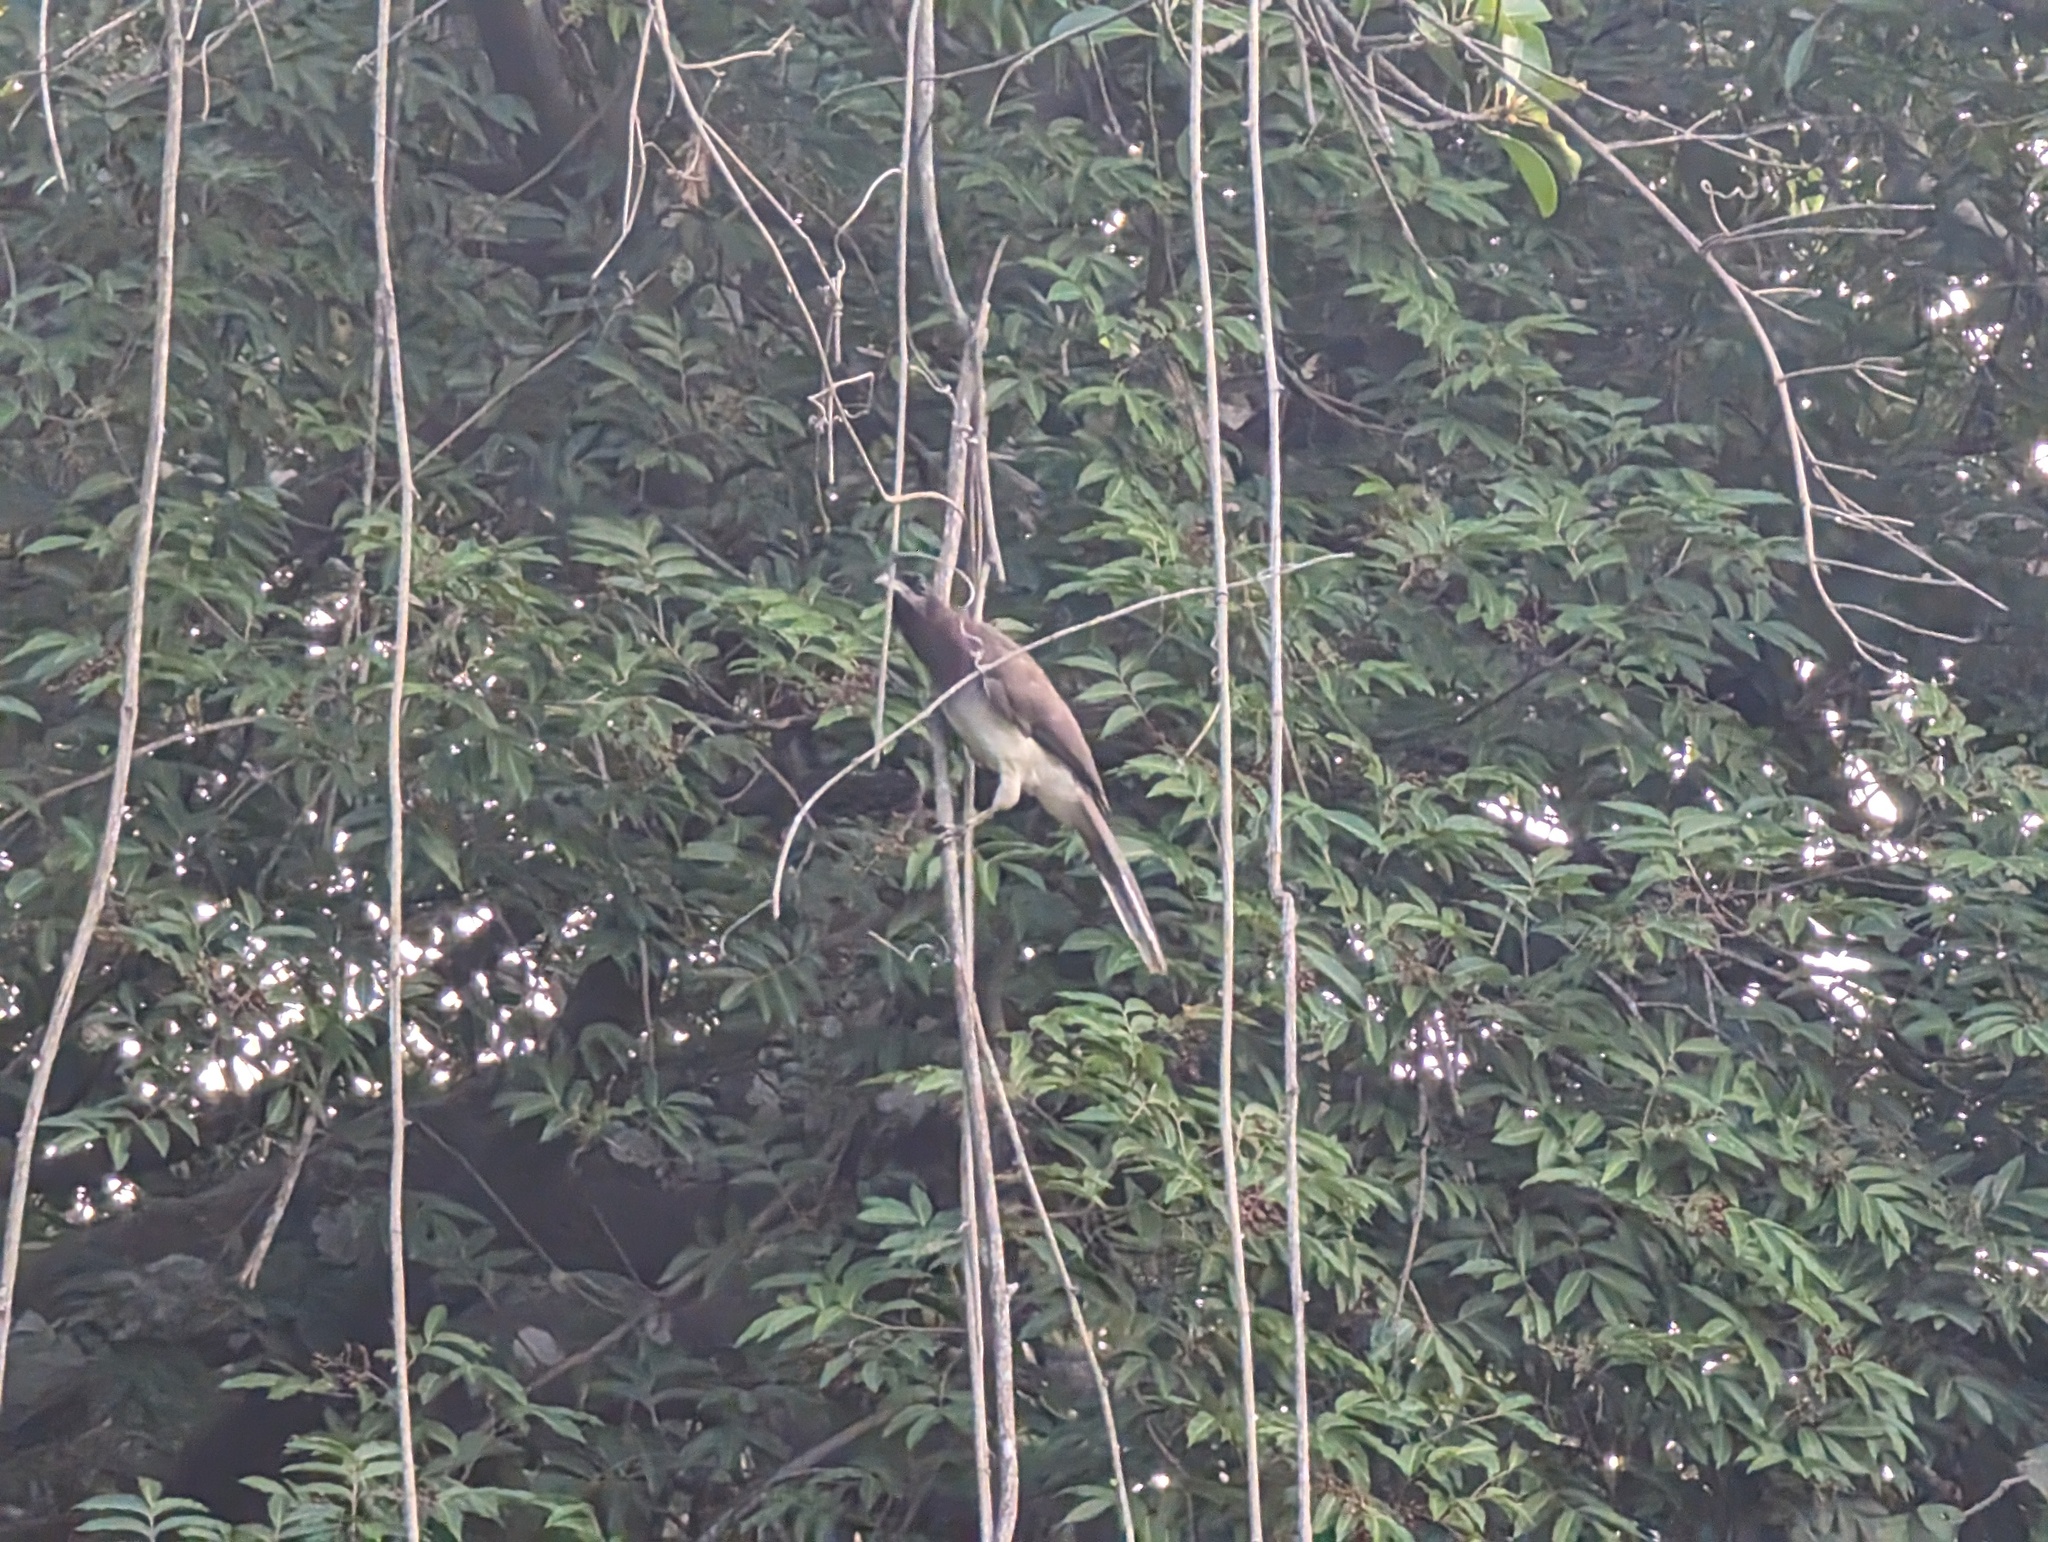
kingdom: Animalia
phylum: Chordata
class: Aves
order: Passeriformes
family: Corvidae
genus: Psilorhinus
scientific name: Psilorhinus morio
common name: Brown jay
